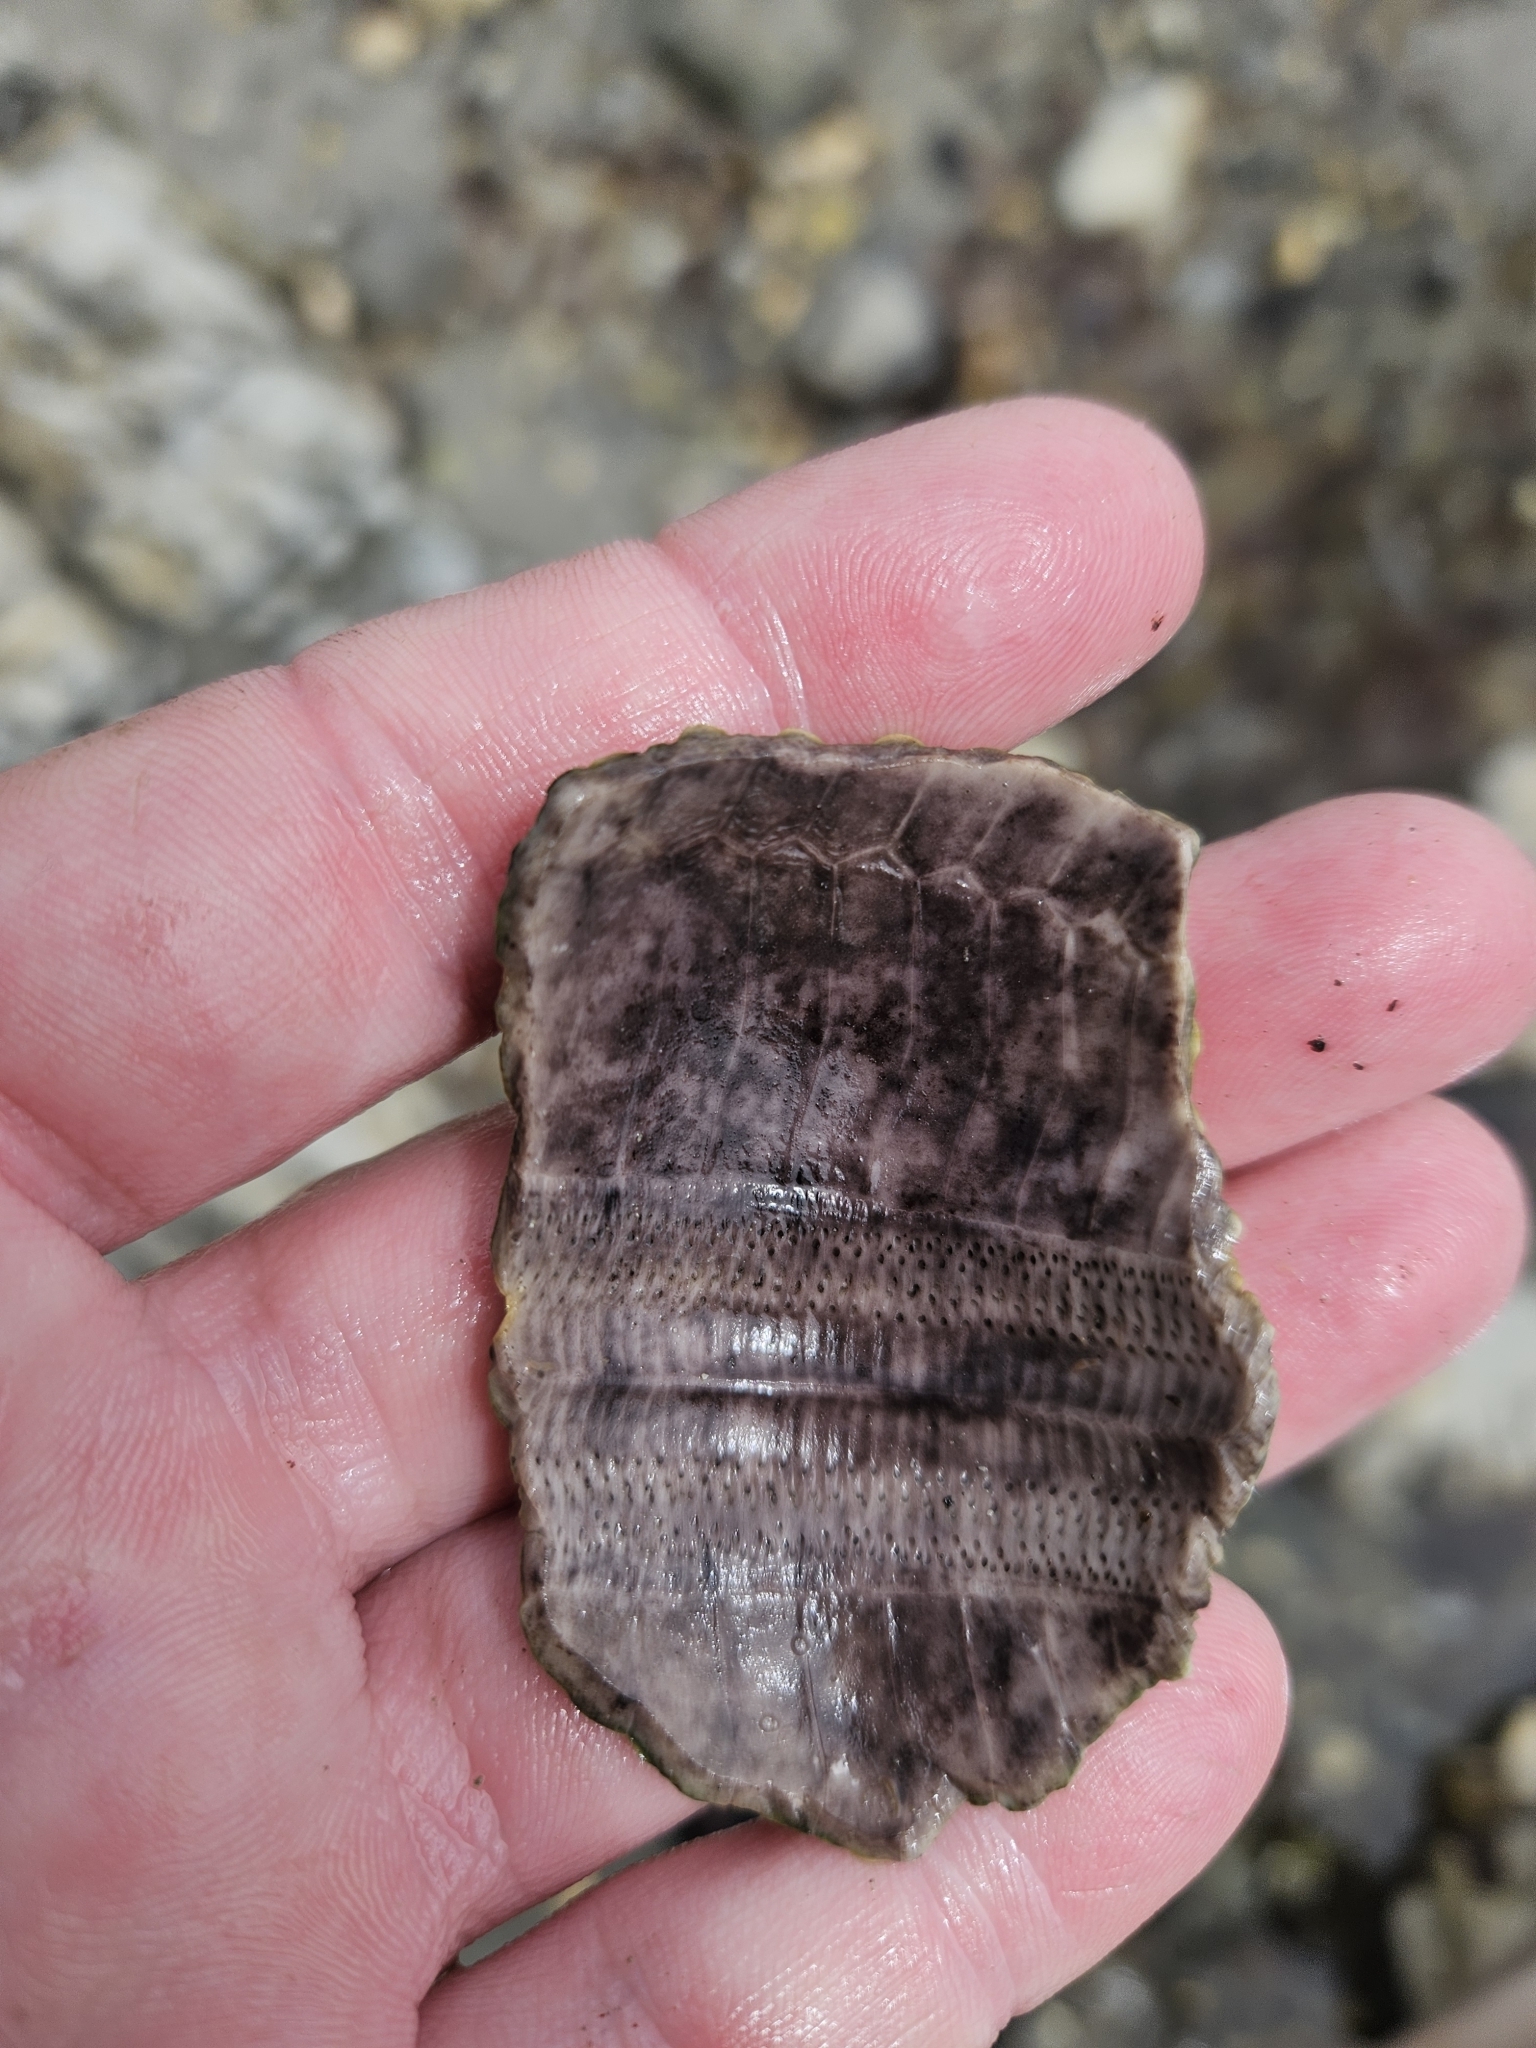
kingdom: Animalia
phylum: Echinodermata
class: Echinoidea
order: Camarodonta
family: Echinometridae
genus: Evechinus
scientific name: Evechinus chloroticus
